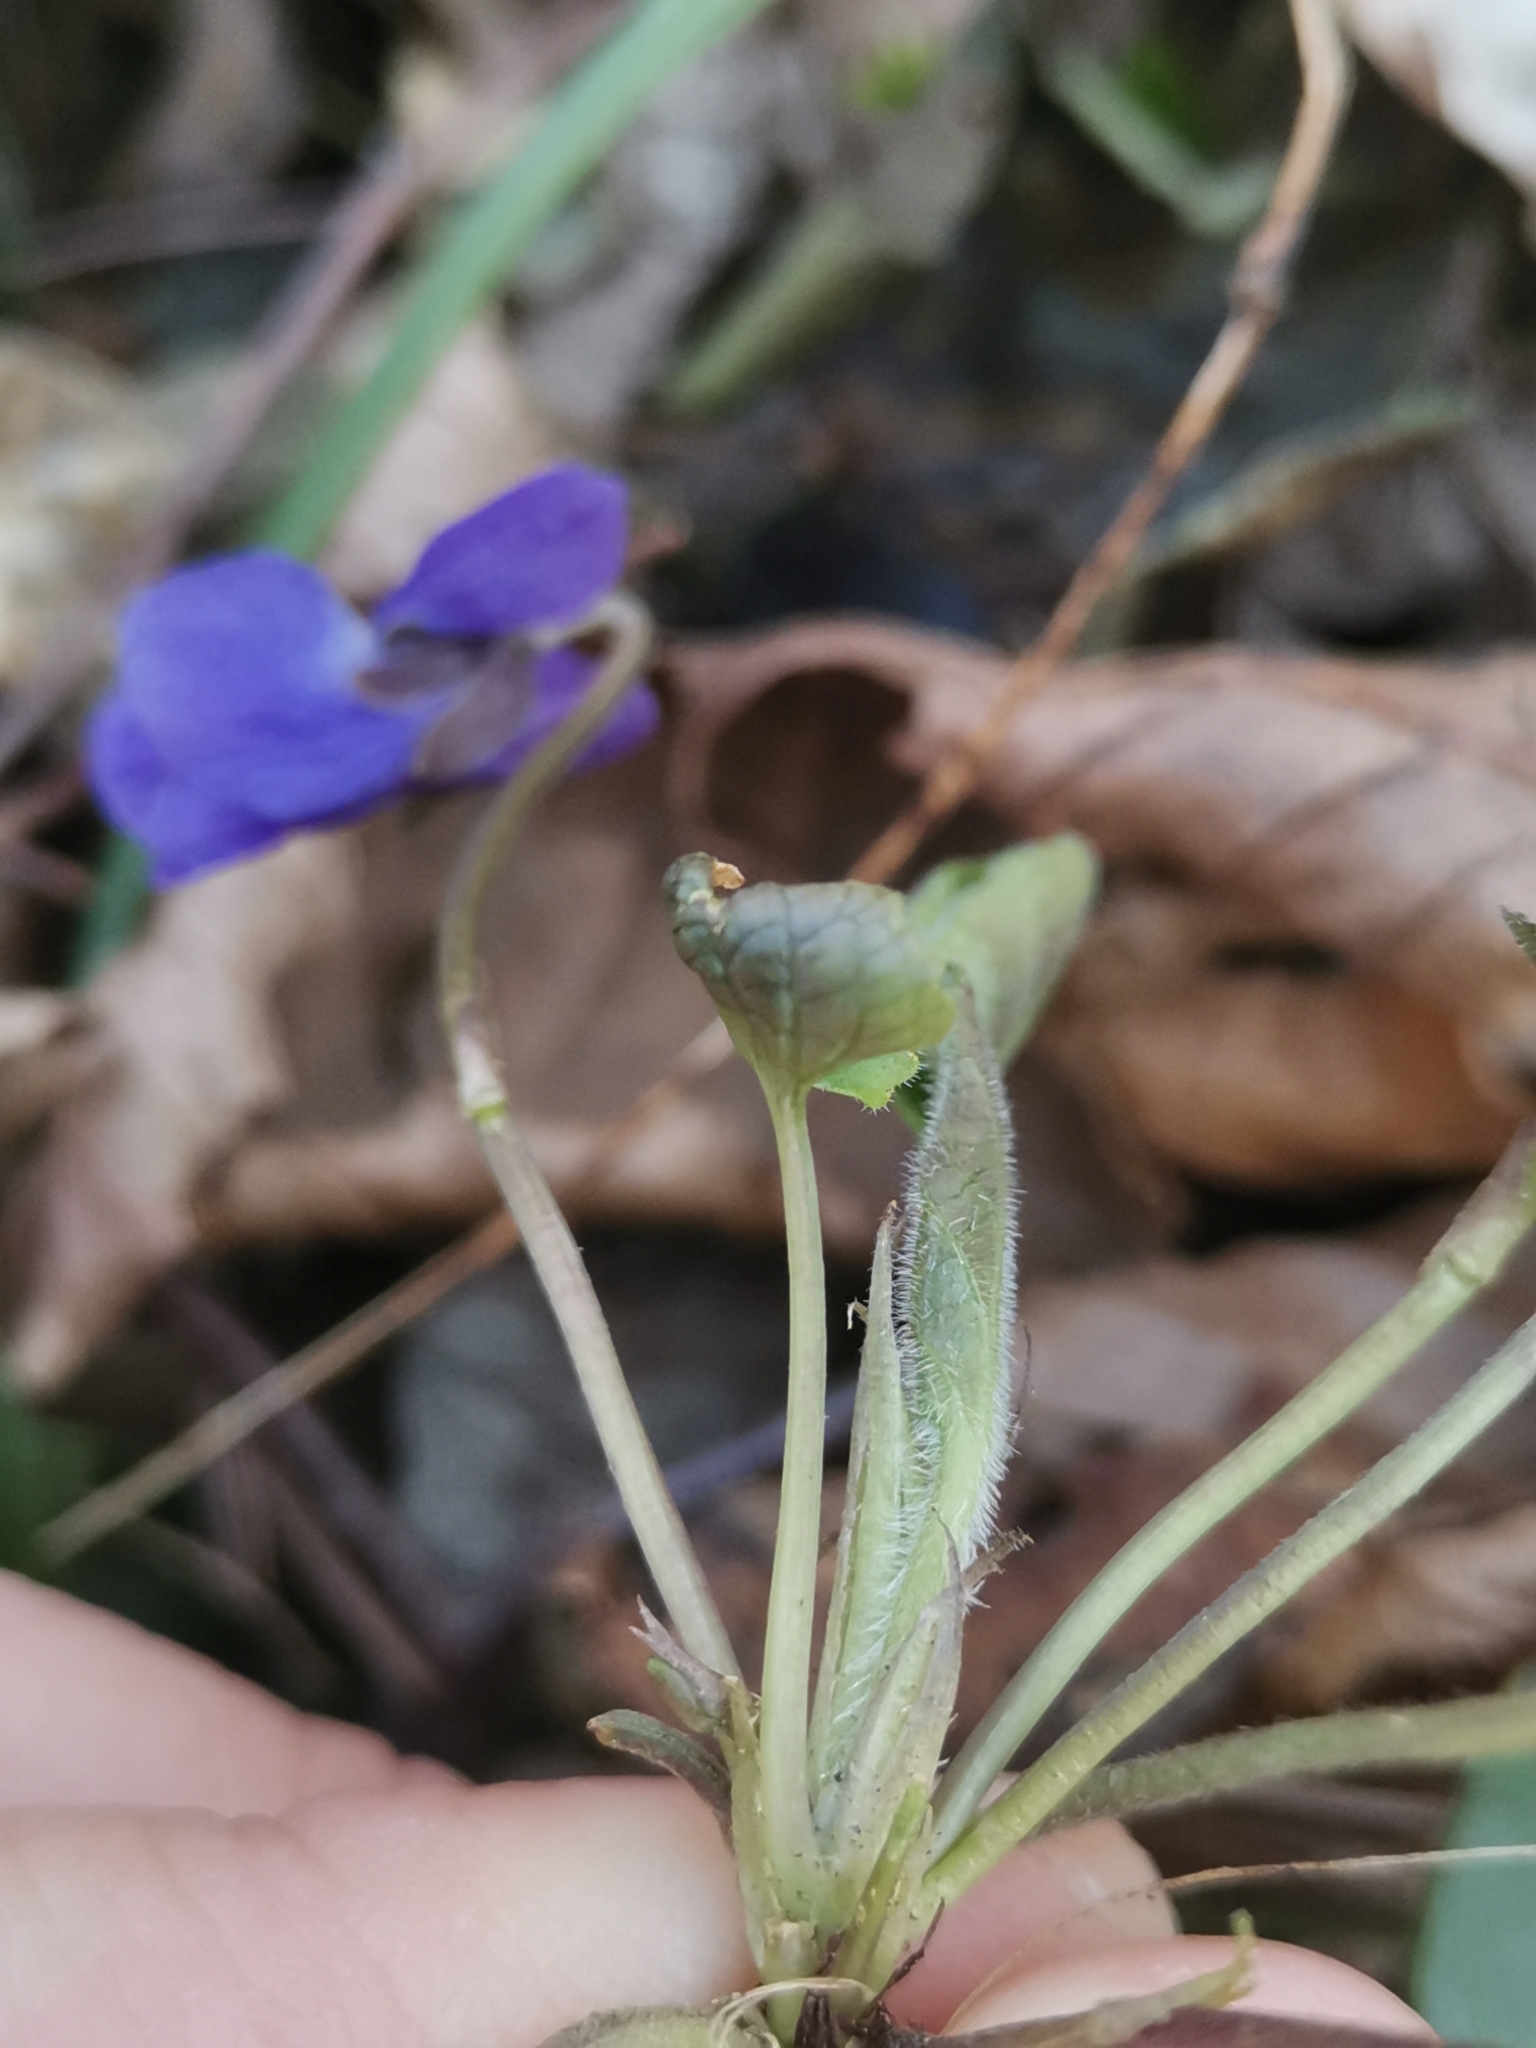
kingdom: Plantae
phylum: Tracheophyta
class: Magnoliopsida
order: Malpighiales
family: Violaceae
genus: Viola
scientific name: Viola alba
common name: White violet
